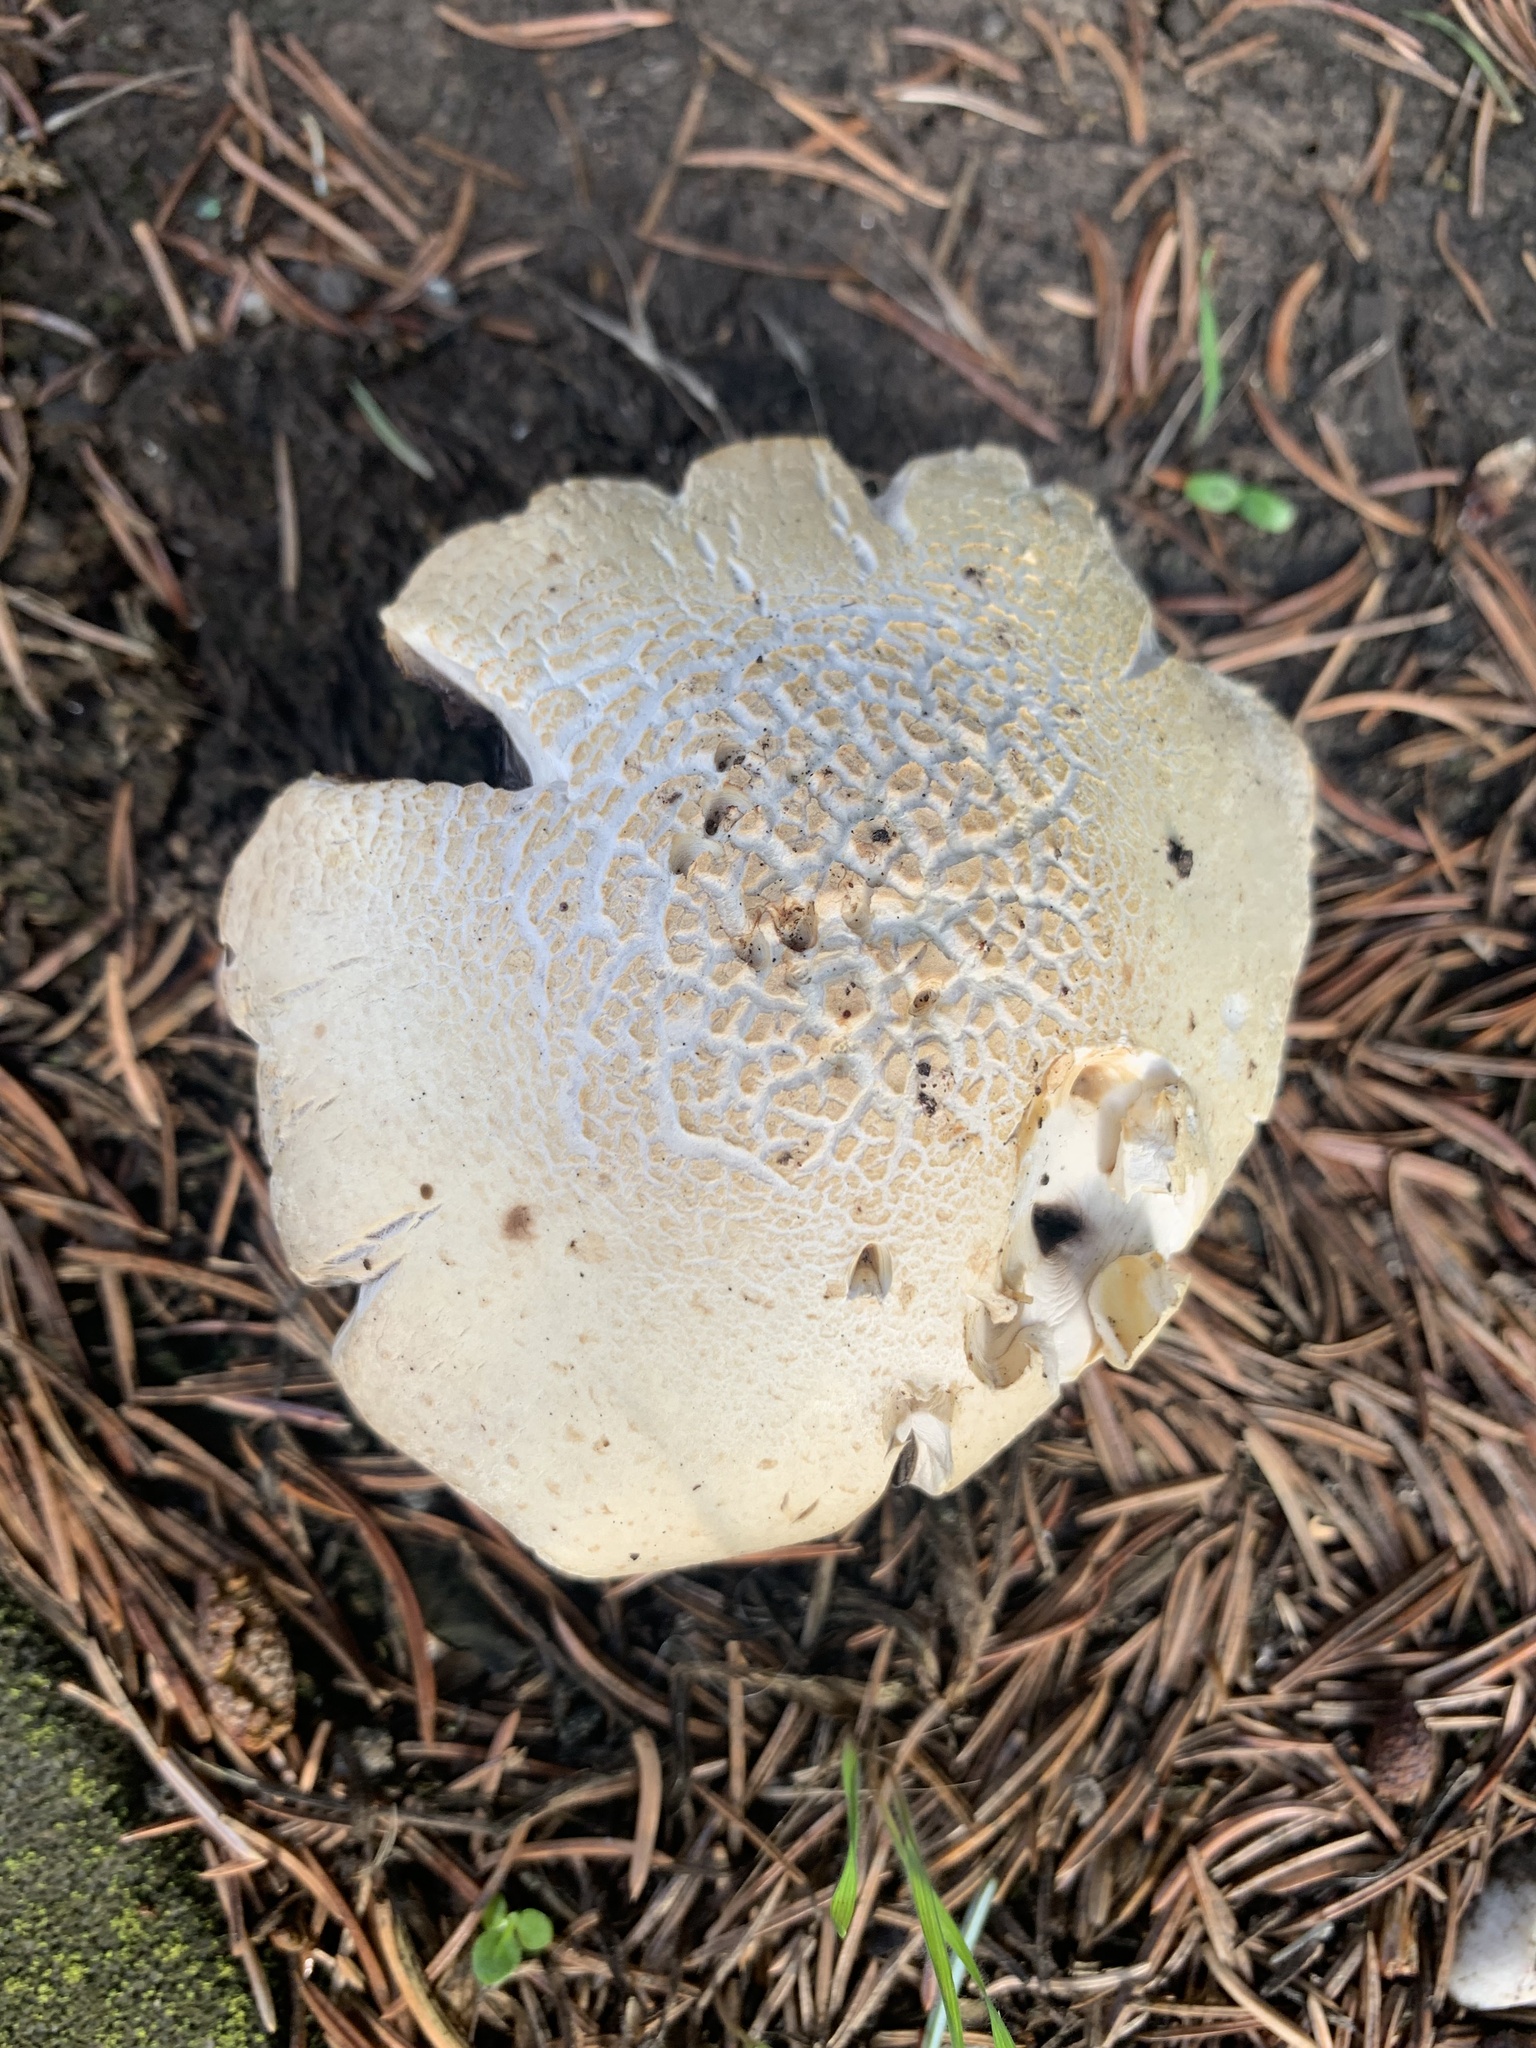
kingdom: Fungi
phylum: Basidiomycota
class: Agaricomycetes
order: Gloeophyllales
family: Gloeophyllaceae
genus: Neolentinus
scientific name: Neolentinus lepideus
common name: Scaly sawgill
